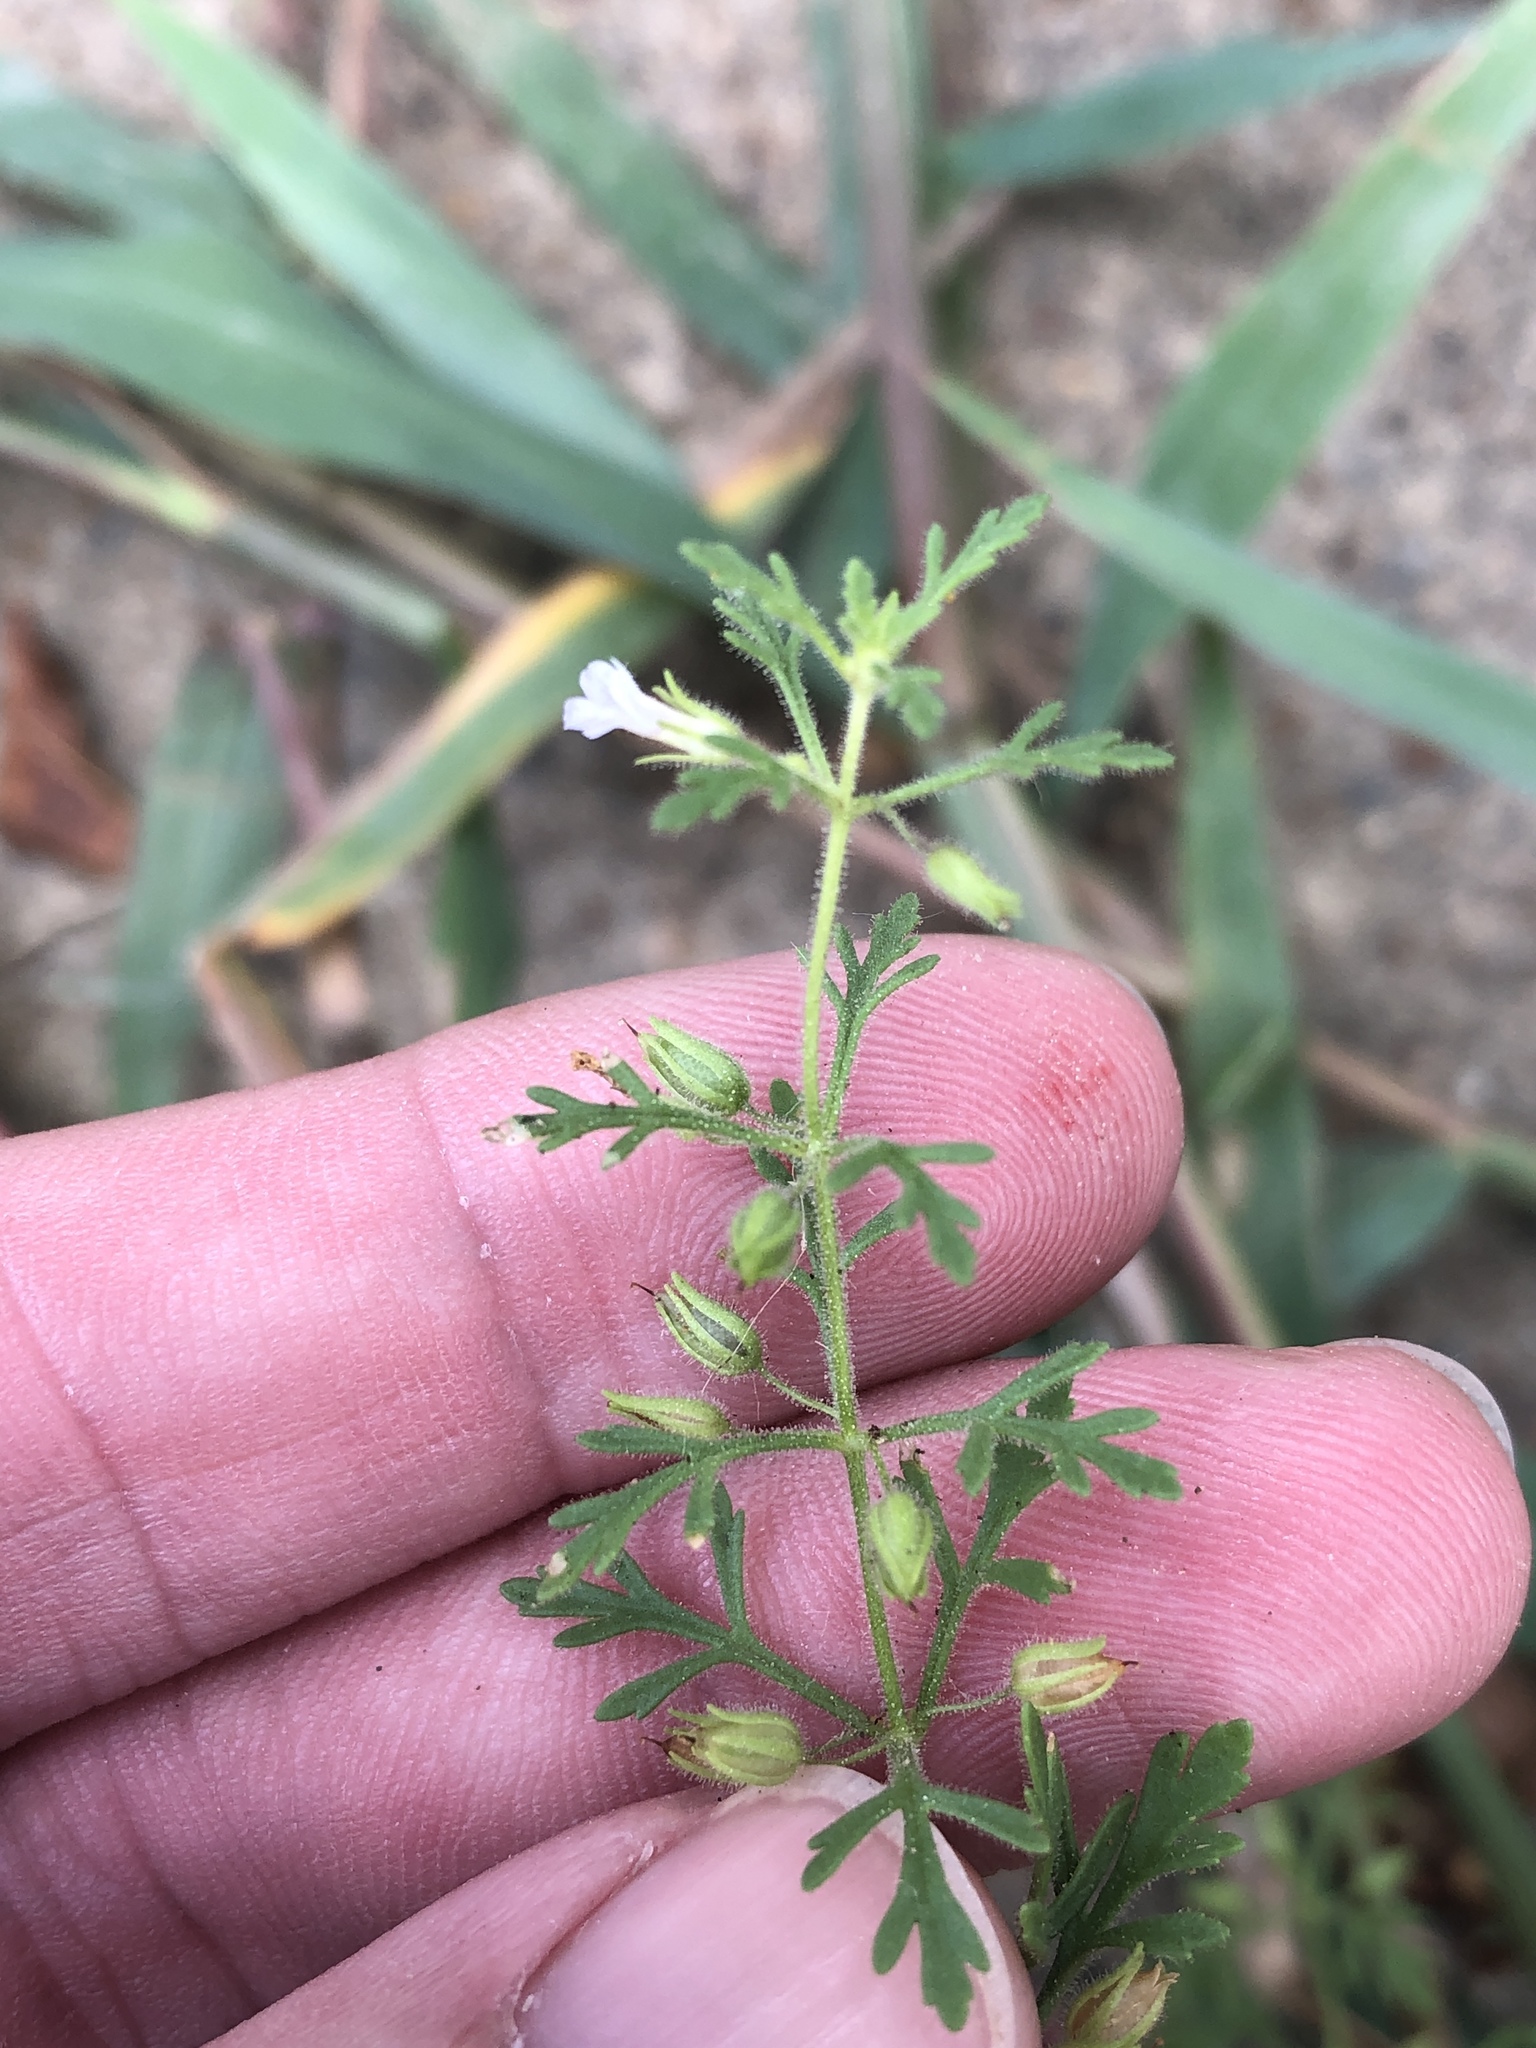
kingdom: Plantae
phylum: Tracheophyta
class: Magnoliopsida
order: Lamiales
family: Plantaginaceae
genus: Leucospora
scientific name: Leucospora multifida
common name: Narrow-leaf paleseed
